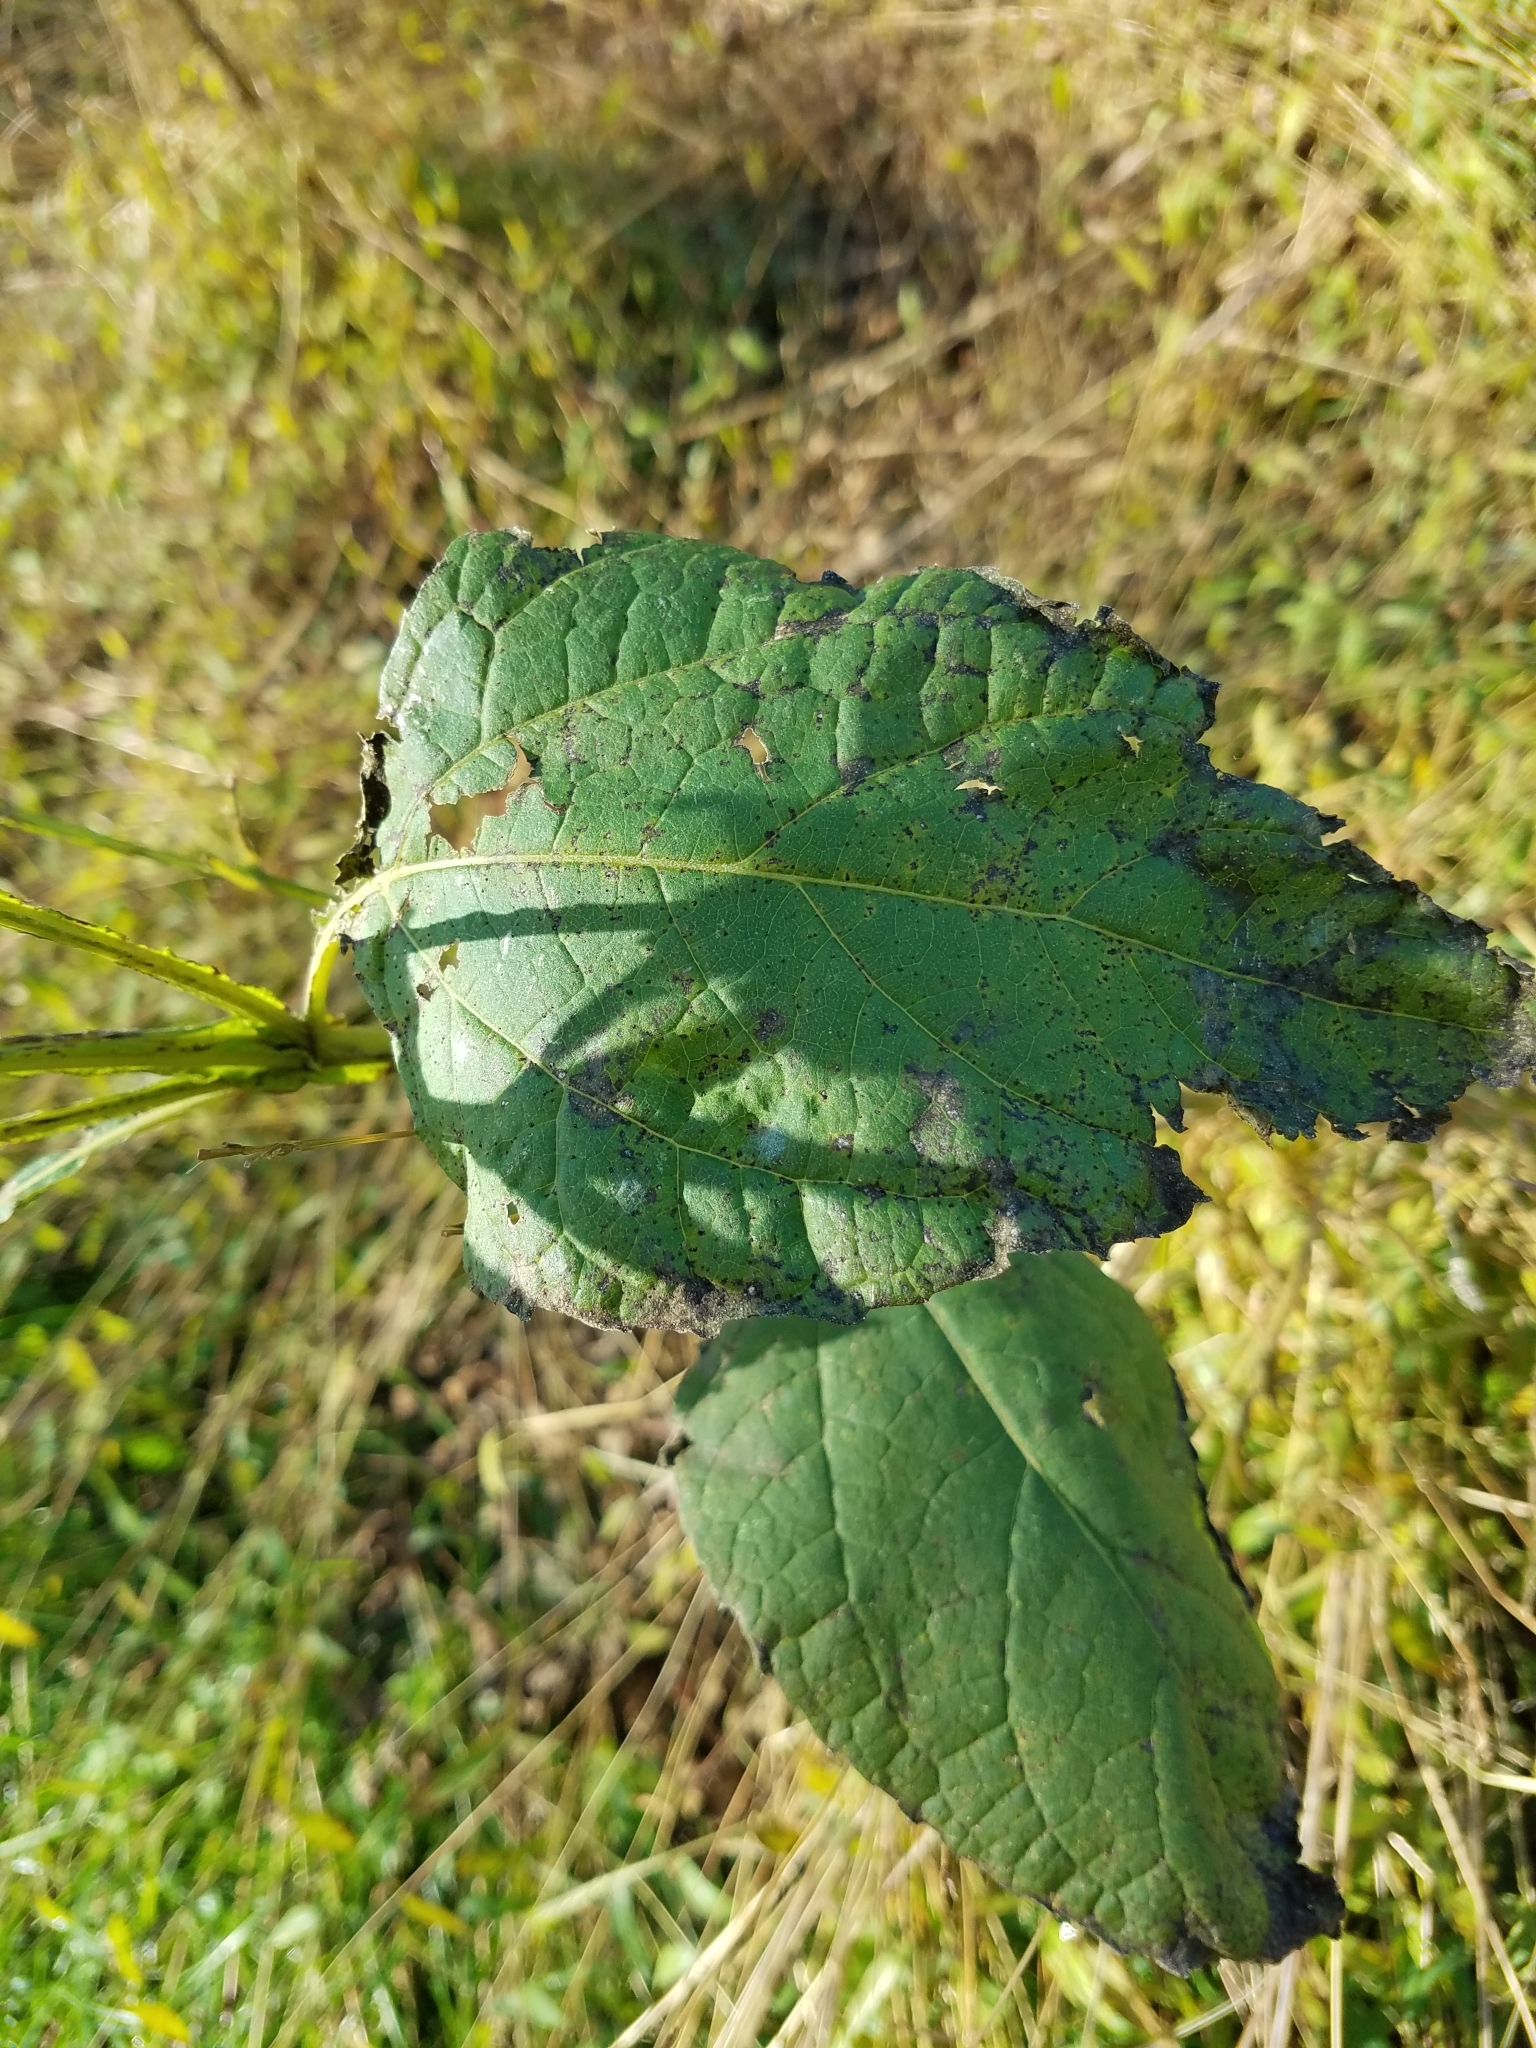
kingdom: Plantae
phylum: Tracheophyta
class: Magnoliopsida
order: Asterales
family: Asteraceae
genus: Verbesina
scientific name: Verbesina occidentalis
